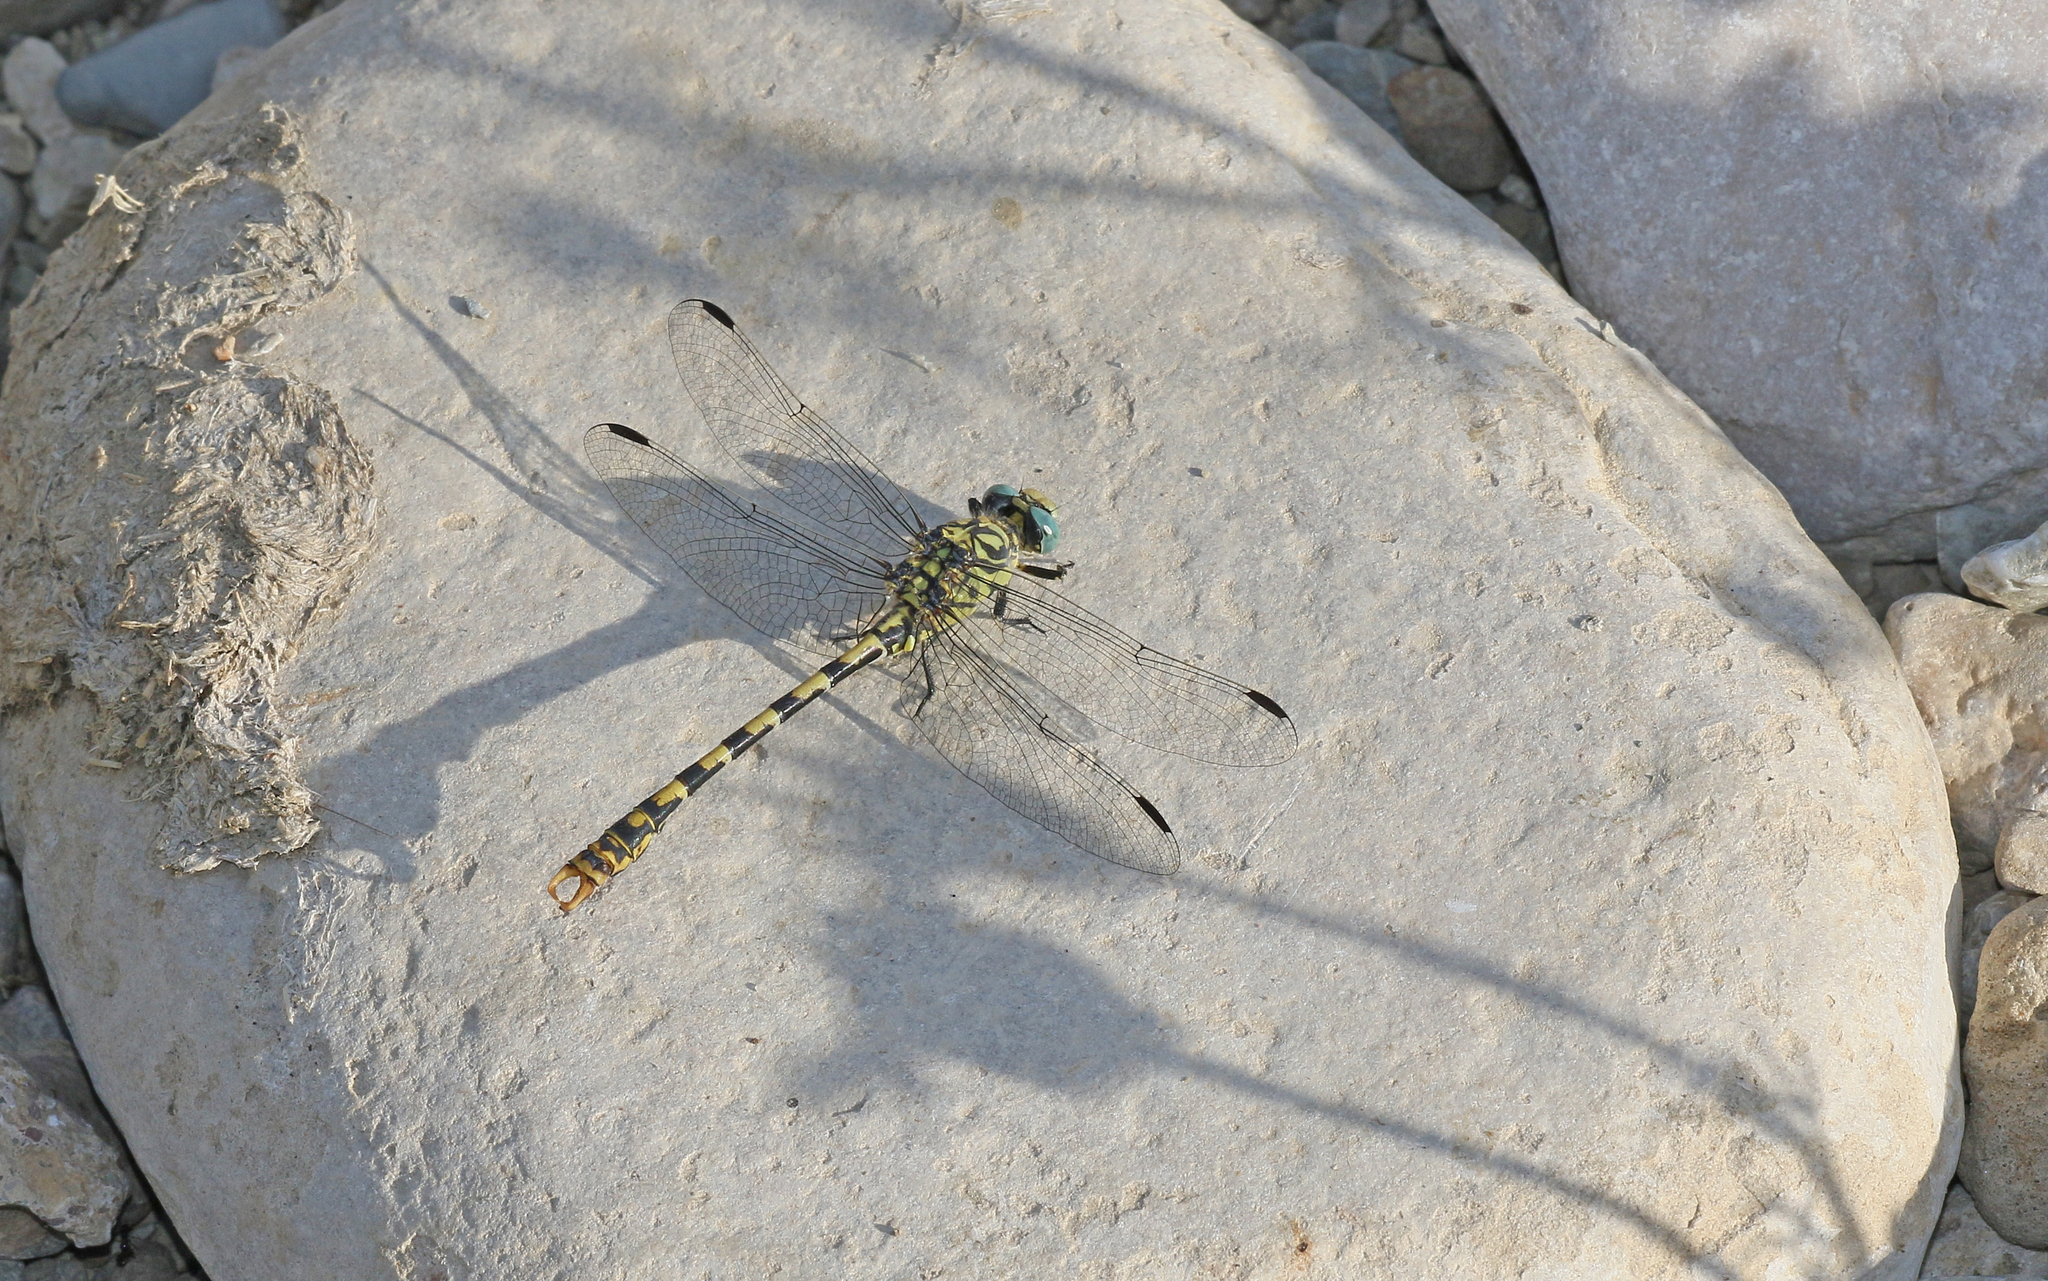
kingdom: Animalia
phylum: Arthropoda
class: Insecta
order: Odonata
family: Gomphidae
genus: Onychogomphus
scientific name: Onychogomphus forcipatus
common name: Small pincertail
